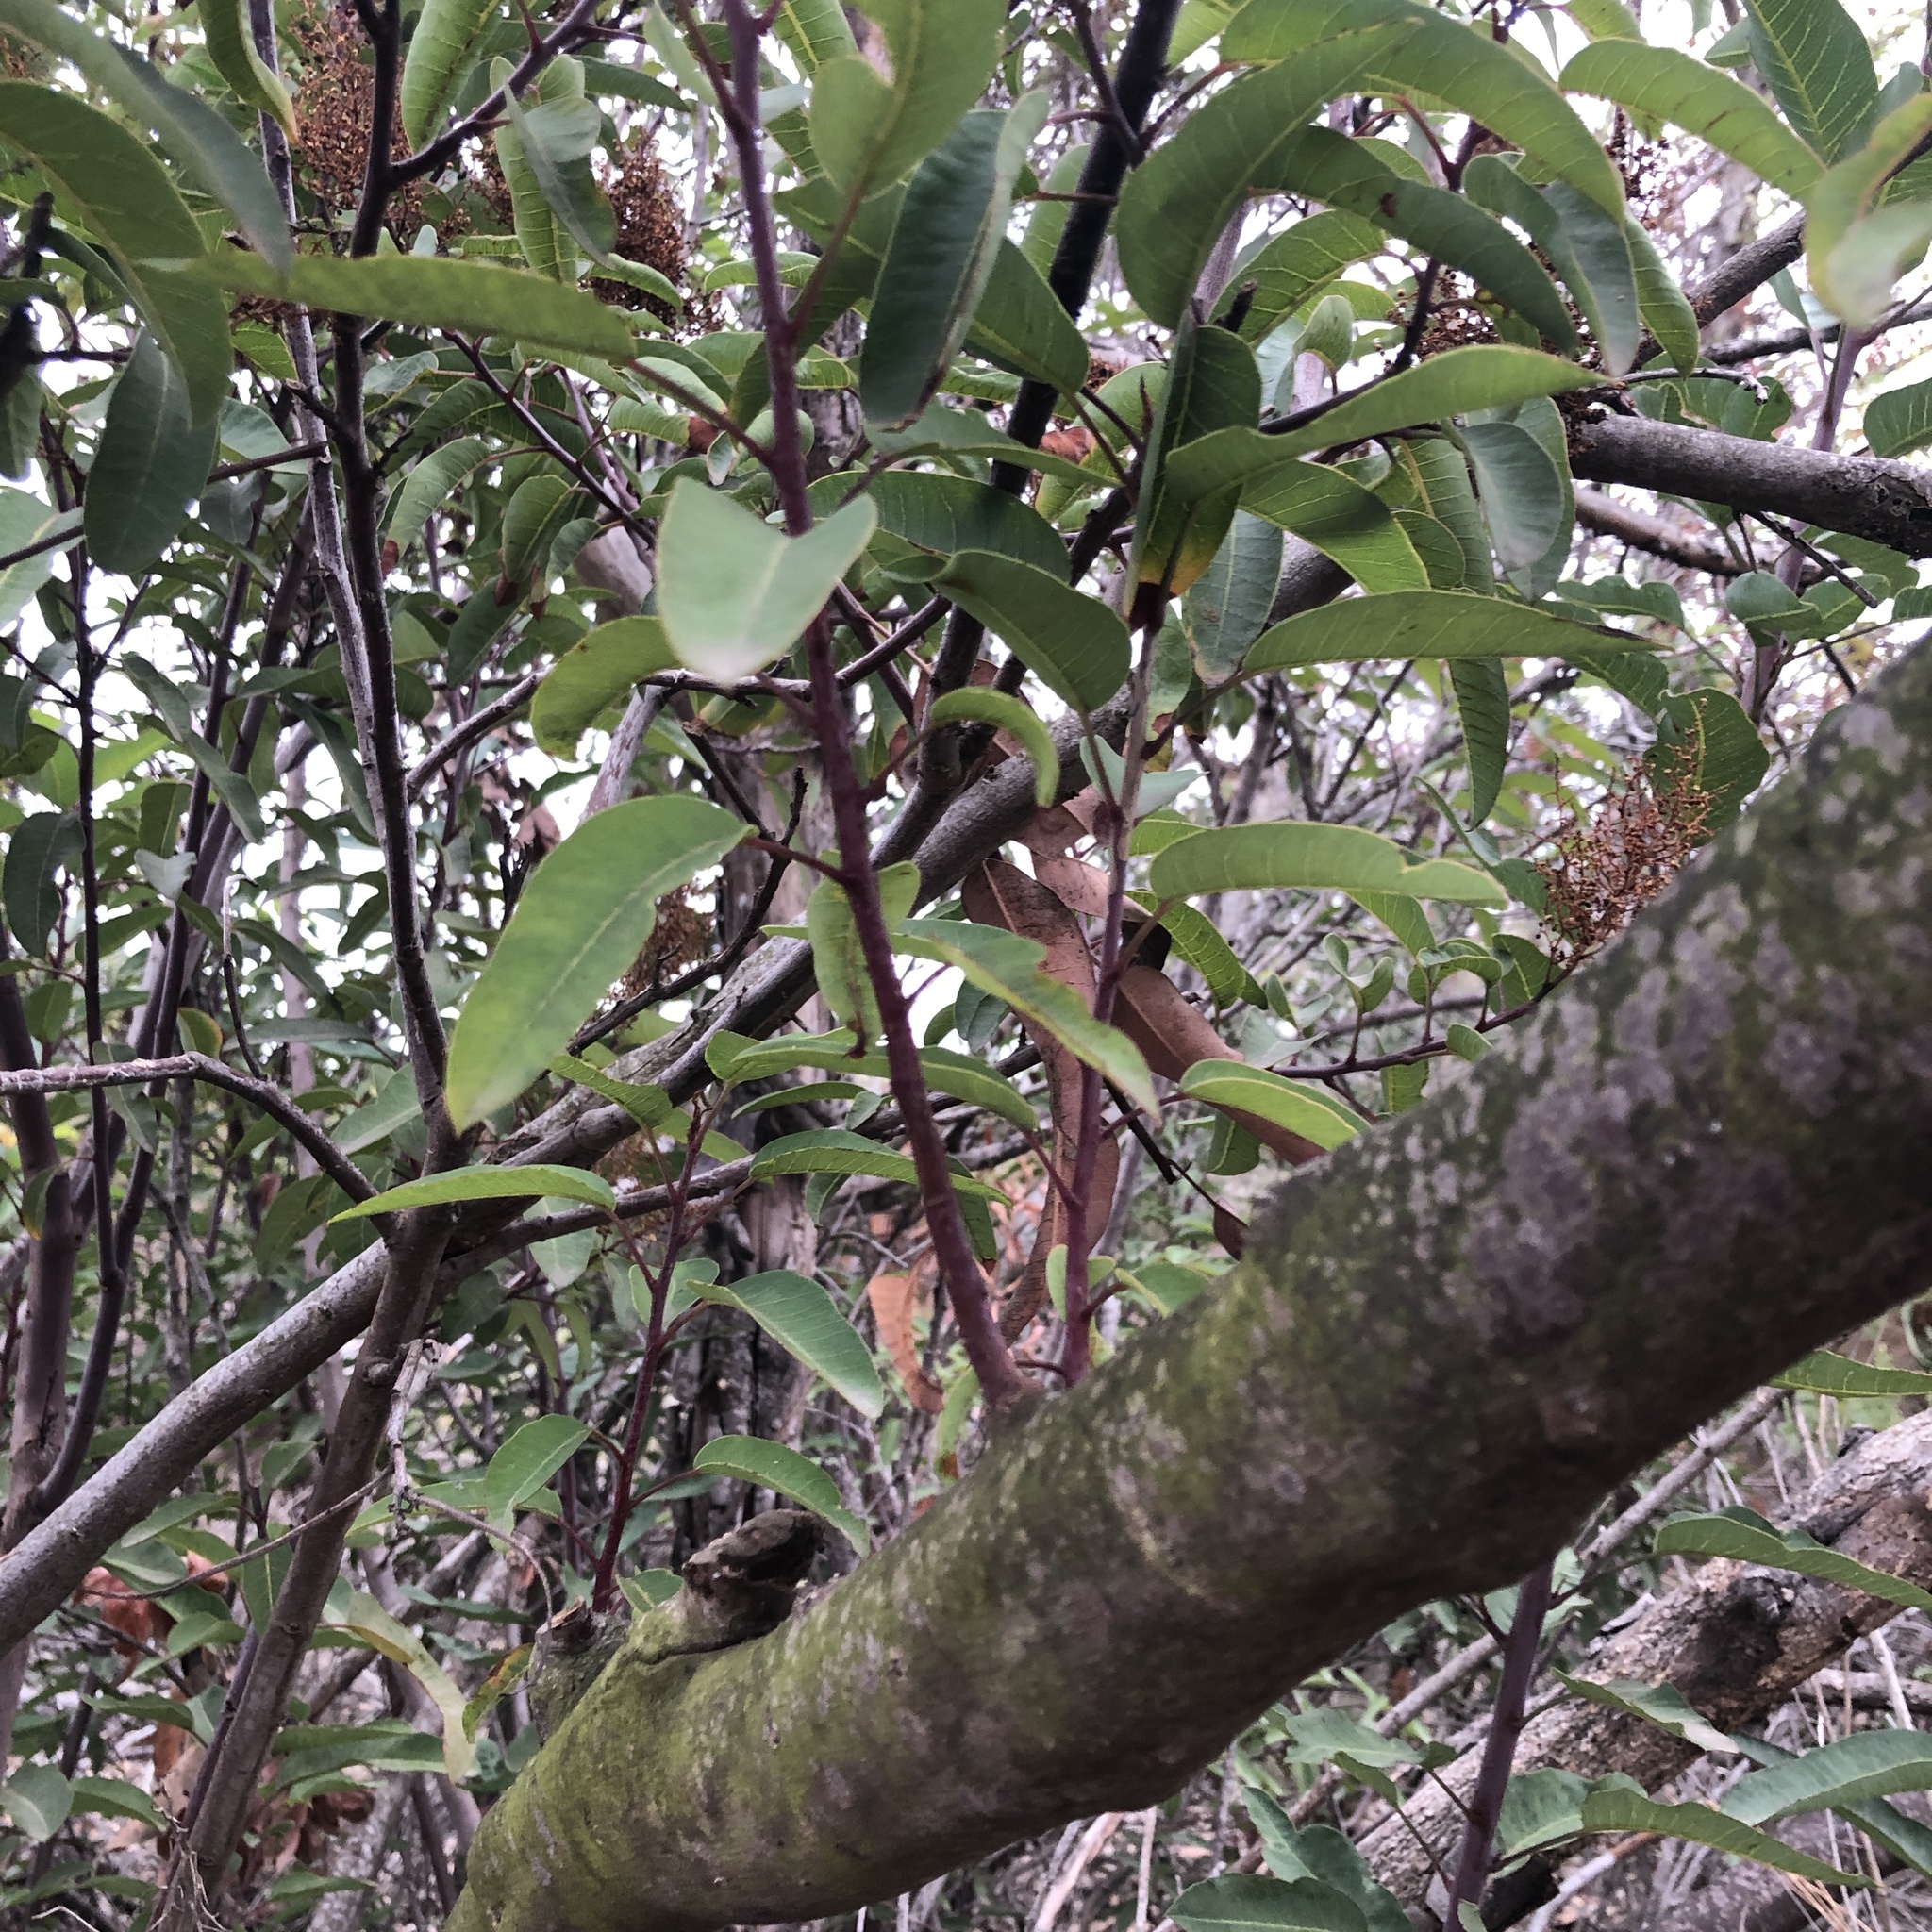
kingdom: Plantae
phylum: Tracheophyta
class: Magnoliopsida
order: Sapindales
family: Anacardiaceae
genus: Malosma
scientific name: Malosma laurina
